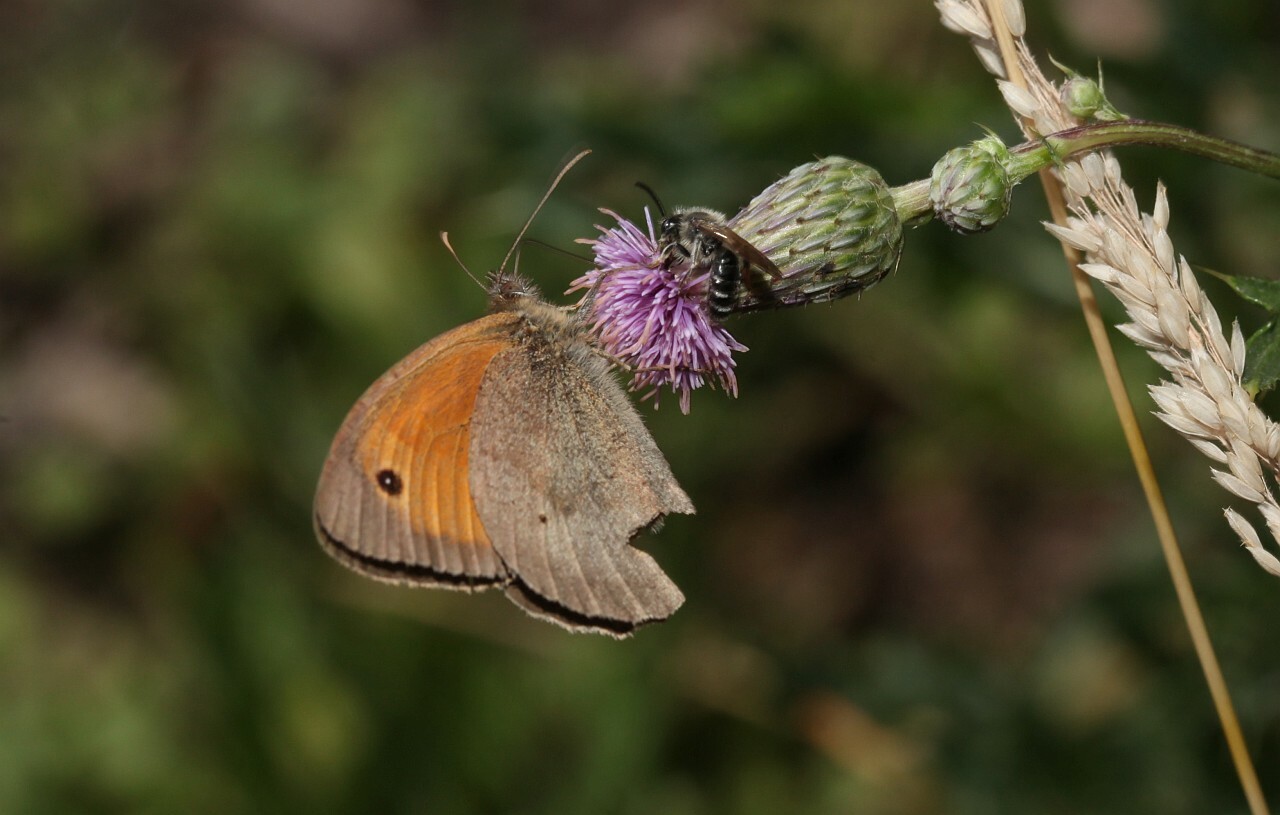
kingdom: Animalia
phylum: Arthropoda
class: Insecta
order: Lepidoptera
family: Nymphalidae
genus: Maniola
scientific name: Maniola jurtina
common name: Meadow brown
